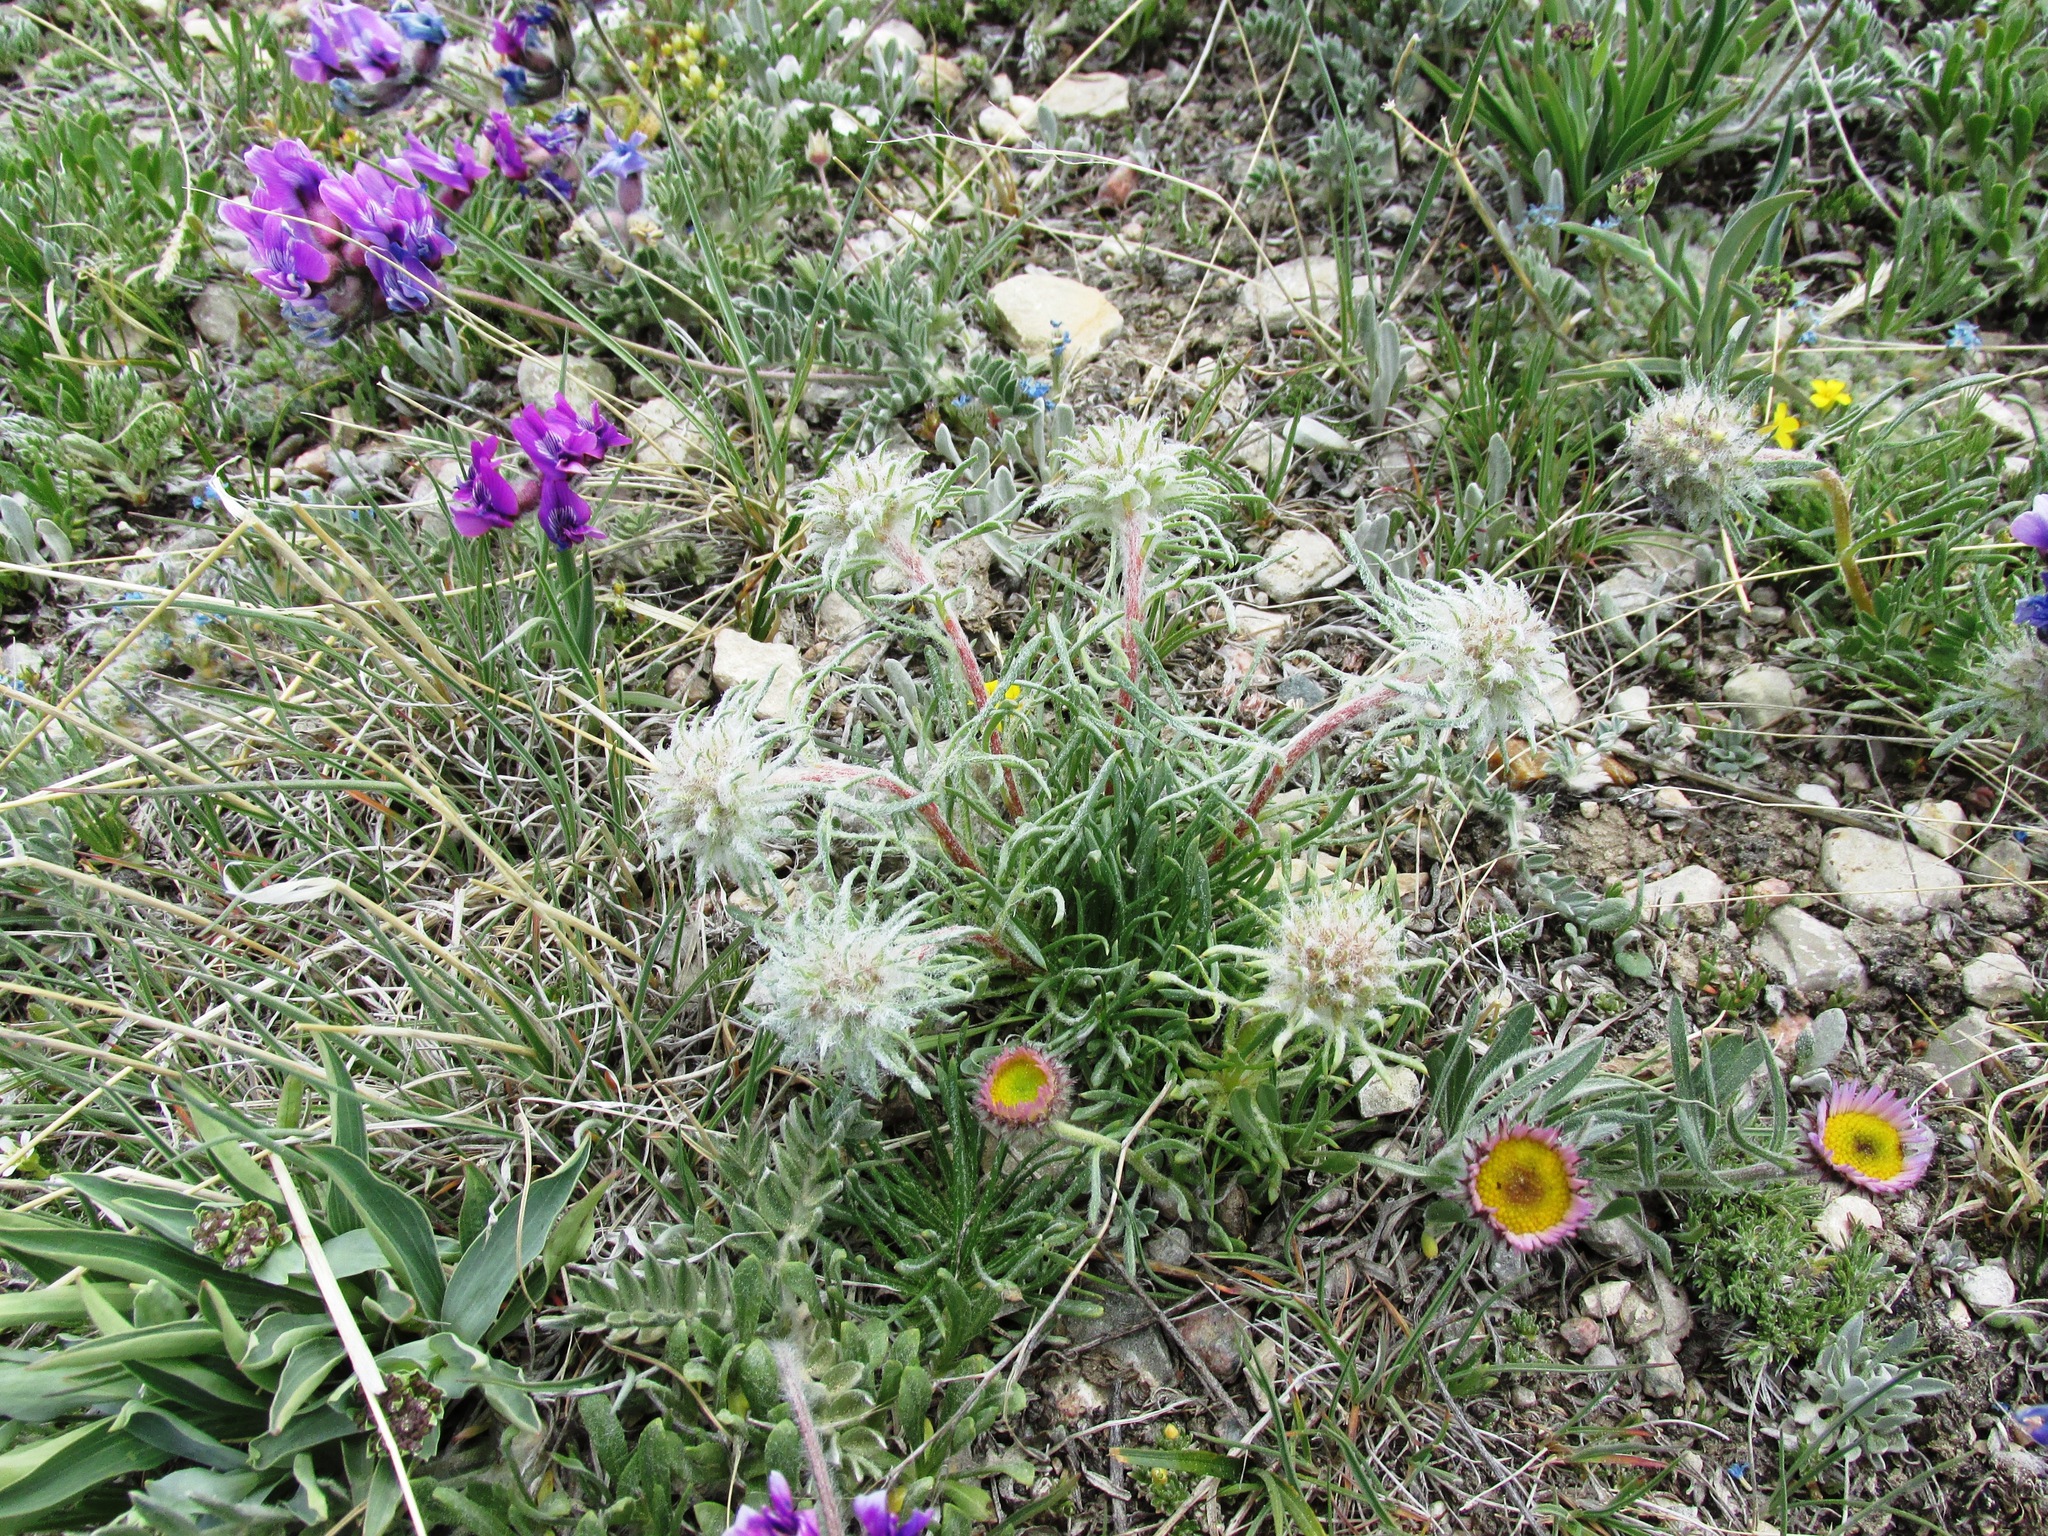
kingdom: Plantae
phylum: Tracheophyta
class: Magnoliopsida
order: Ericales
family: Polemoniaceae
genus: Ipomopsis
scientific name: Ipomopsis spicata
